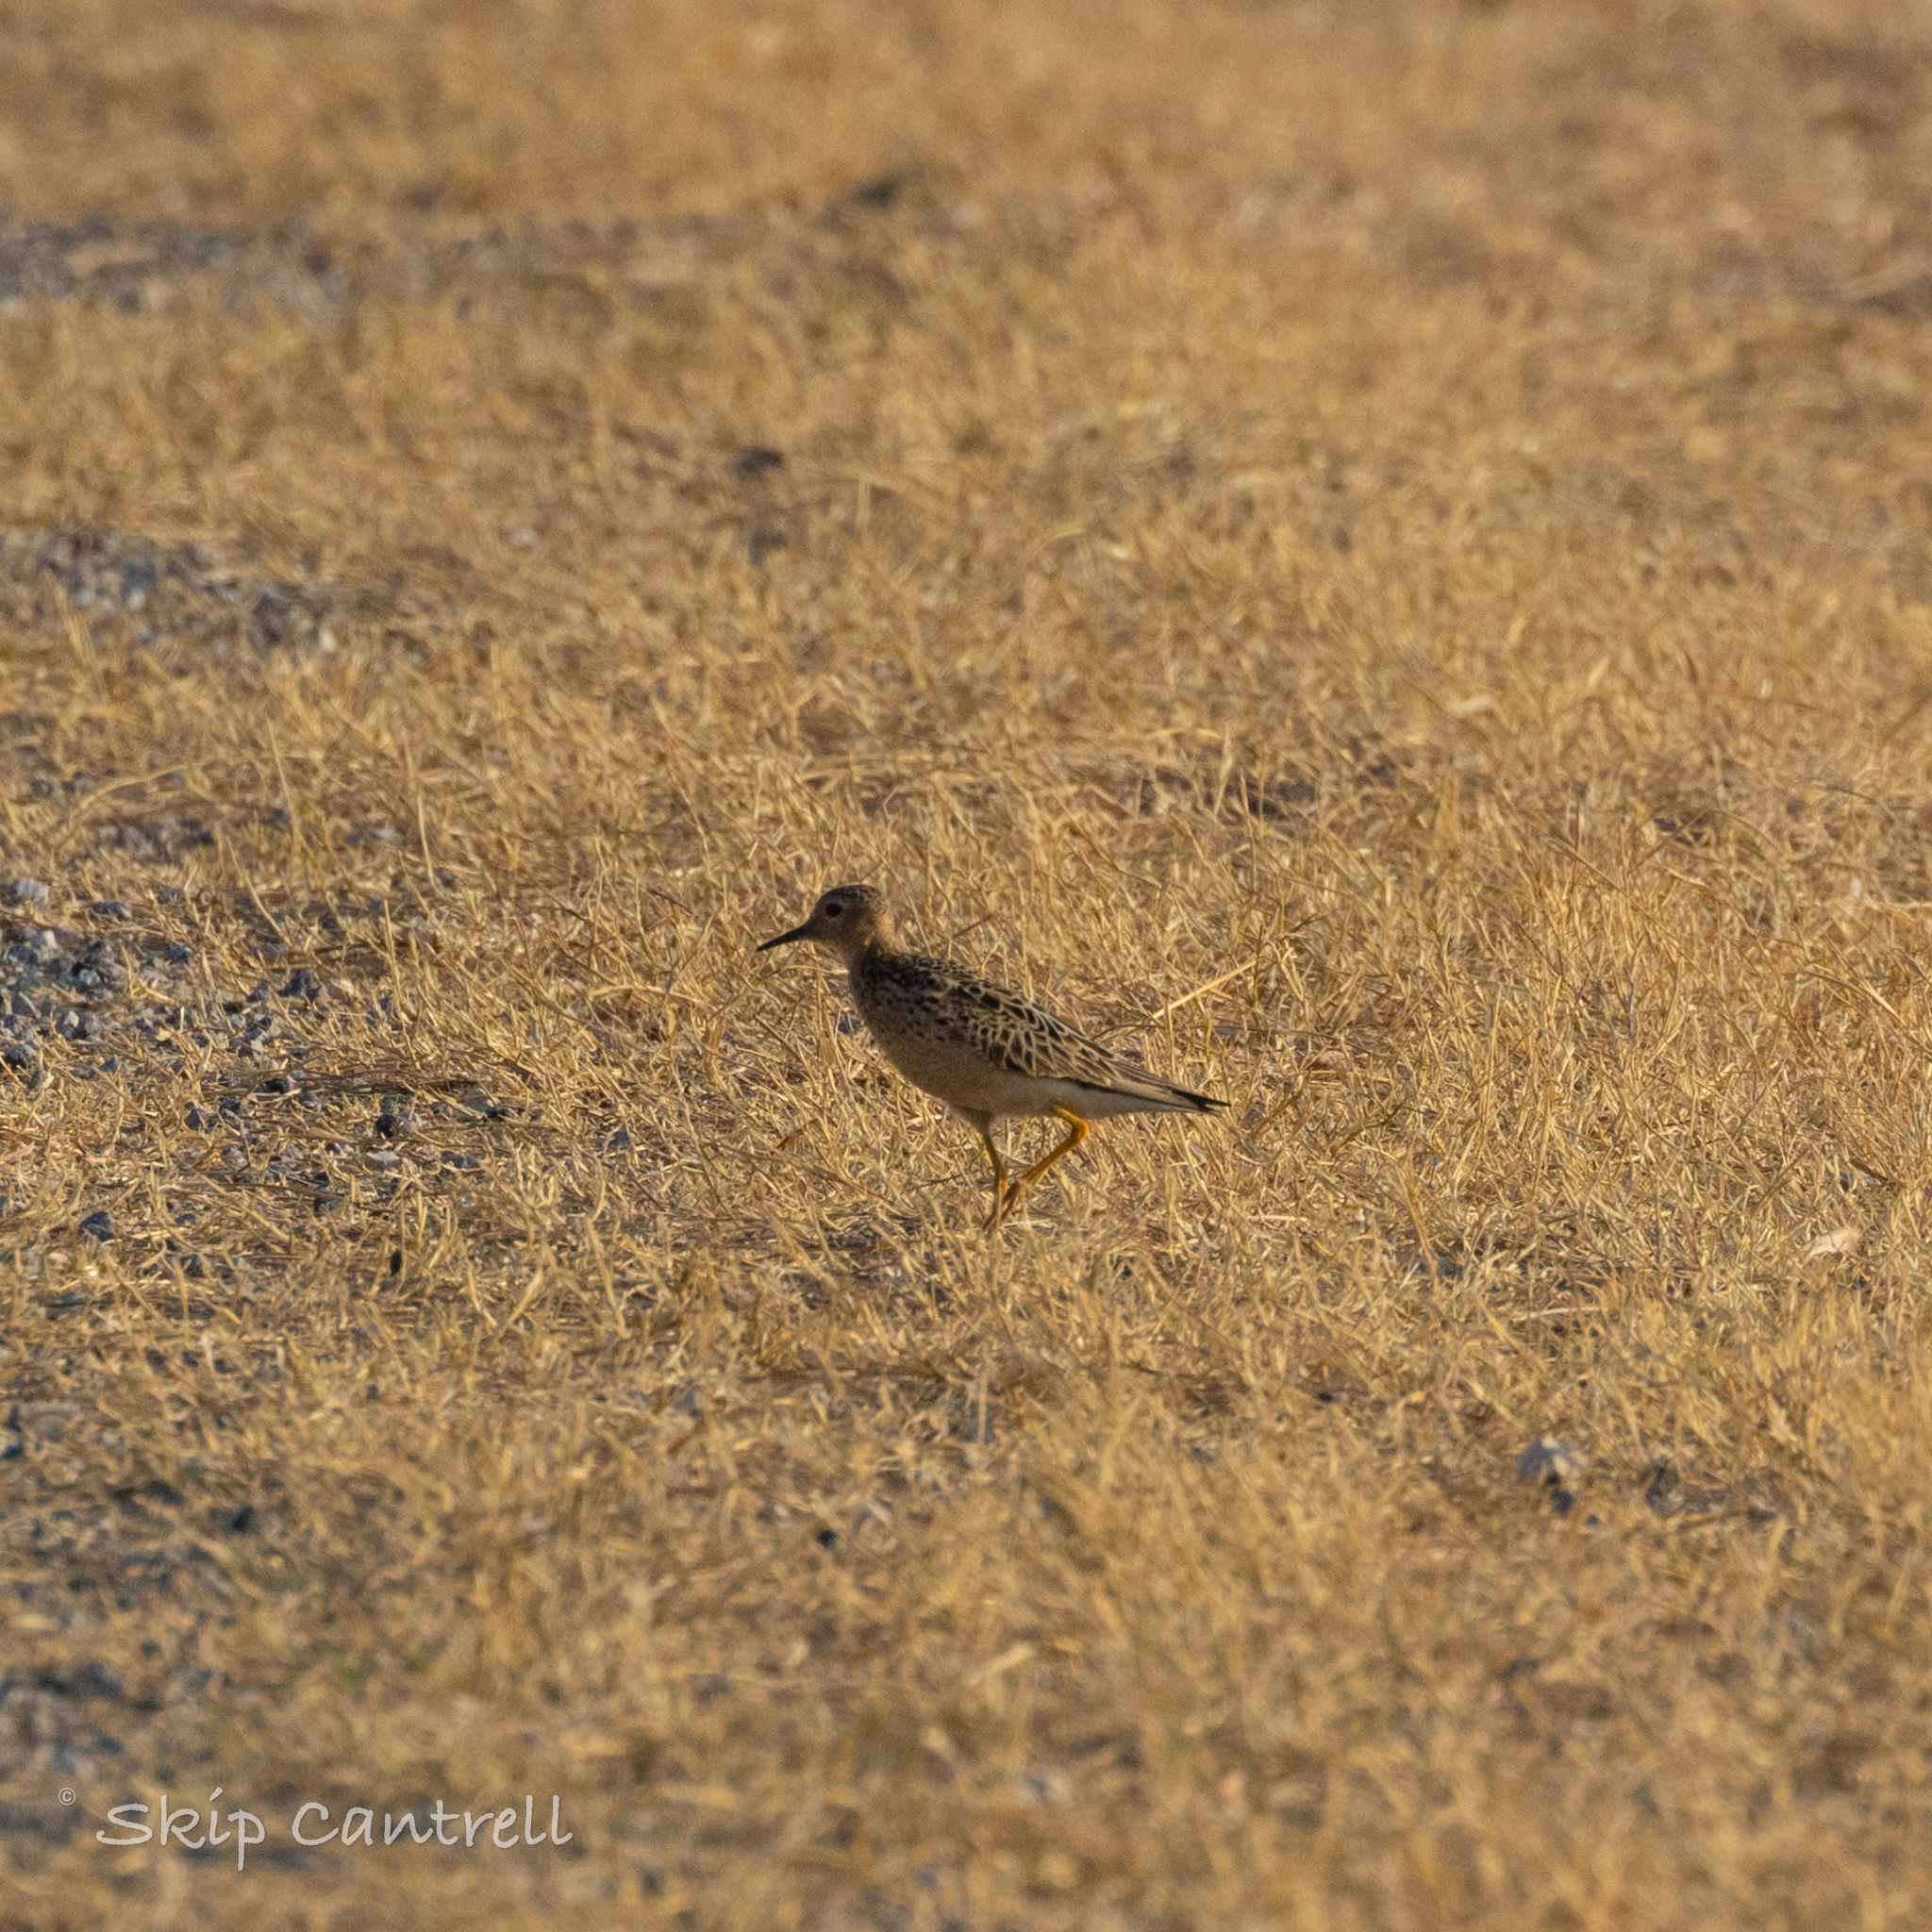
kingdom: Animalia
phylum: Chordata
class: Aves
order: Charadriiformes
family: Scolopacidae
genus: Calidris
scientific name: Calidris subruficollis
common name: Buff-breasted sandpiper
